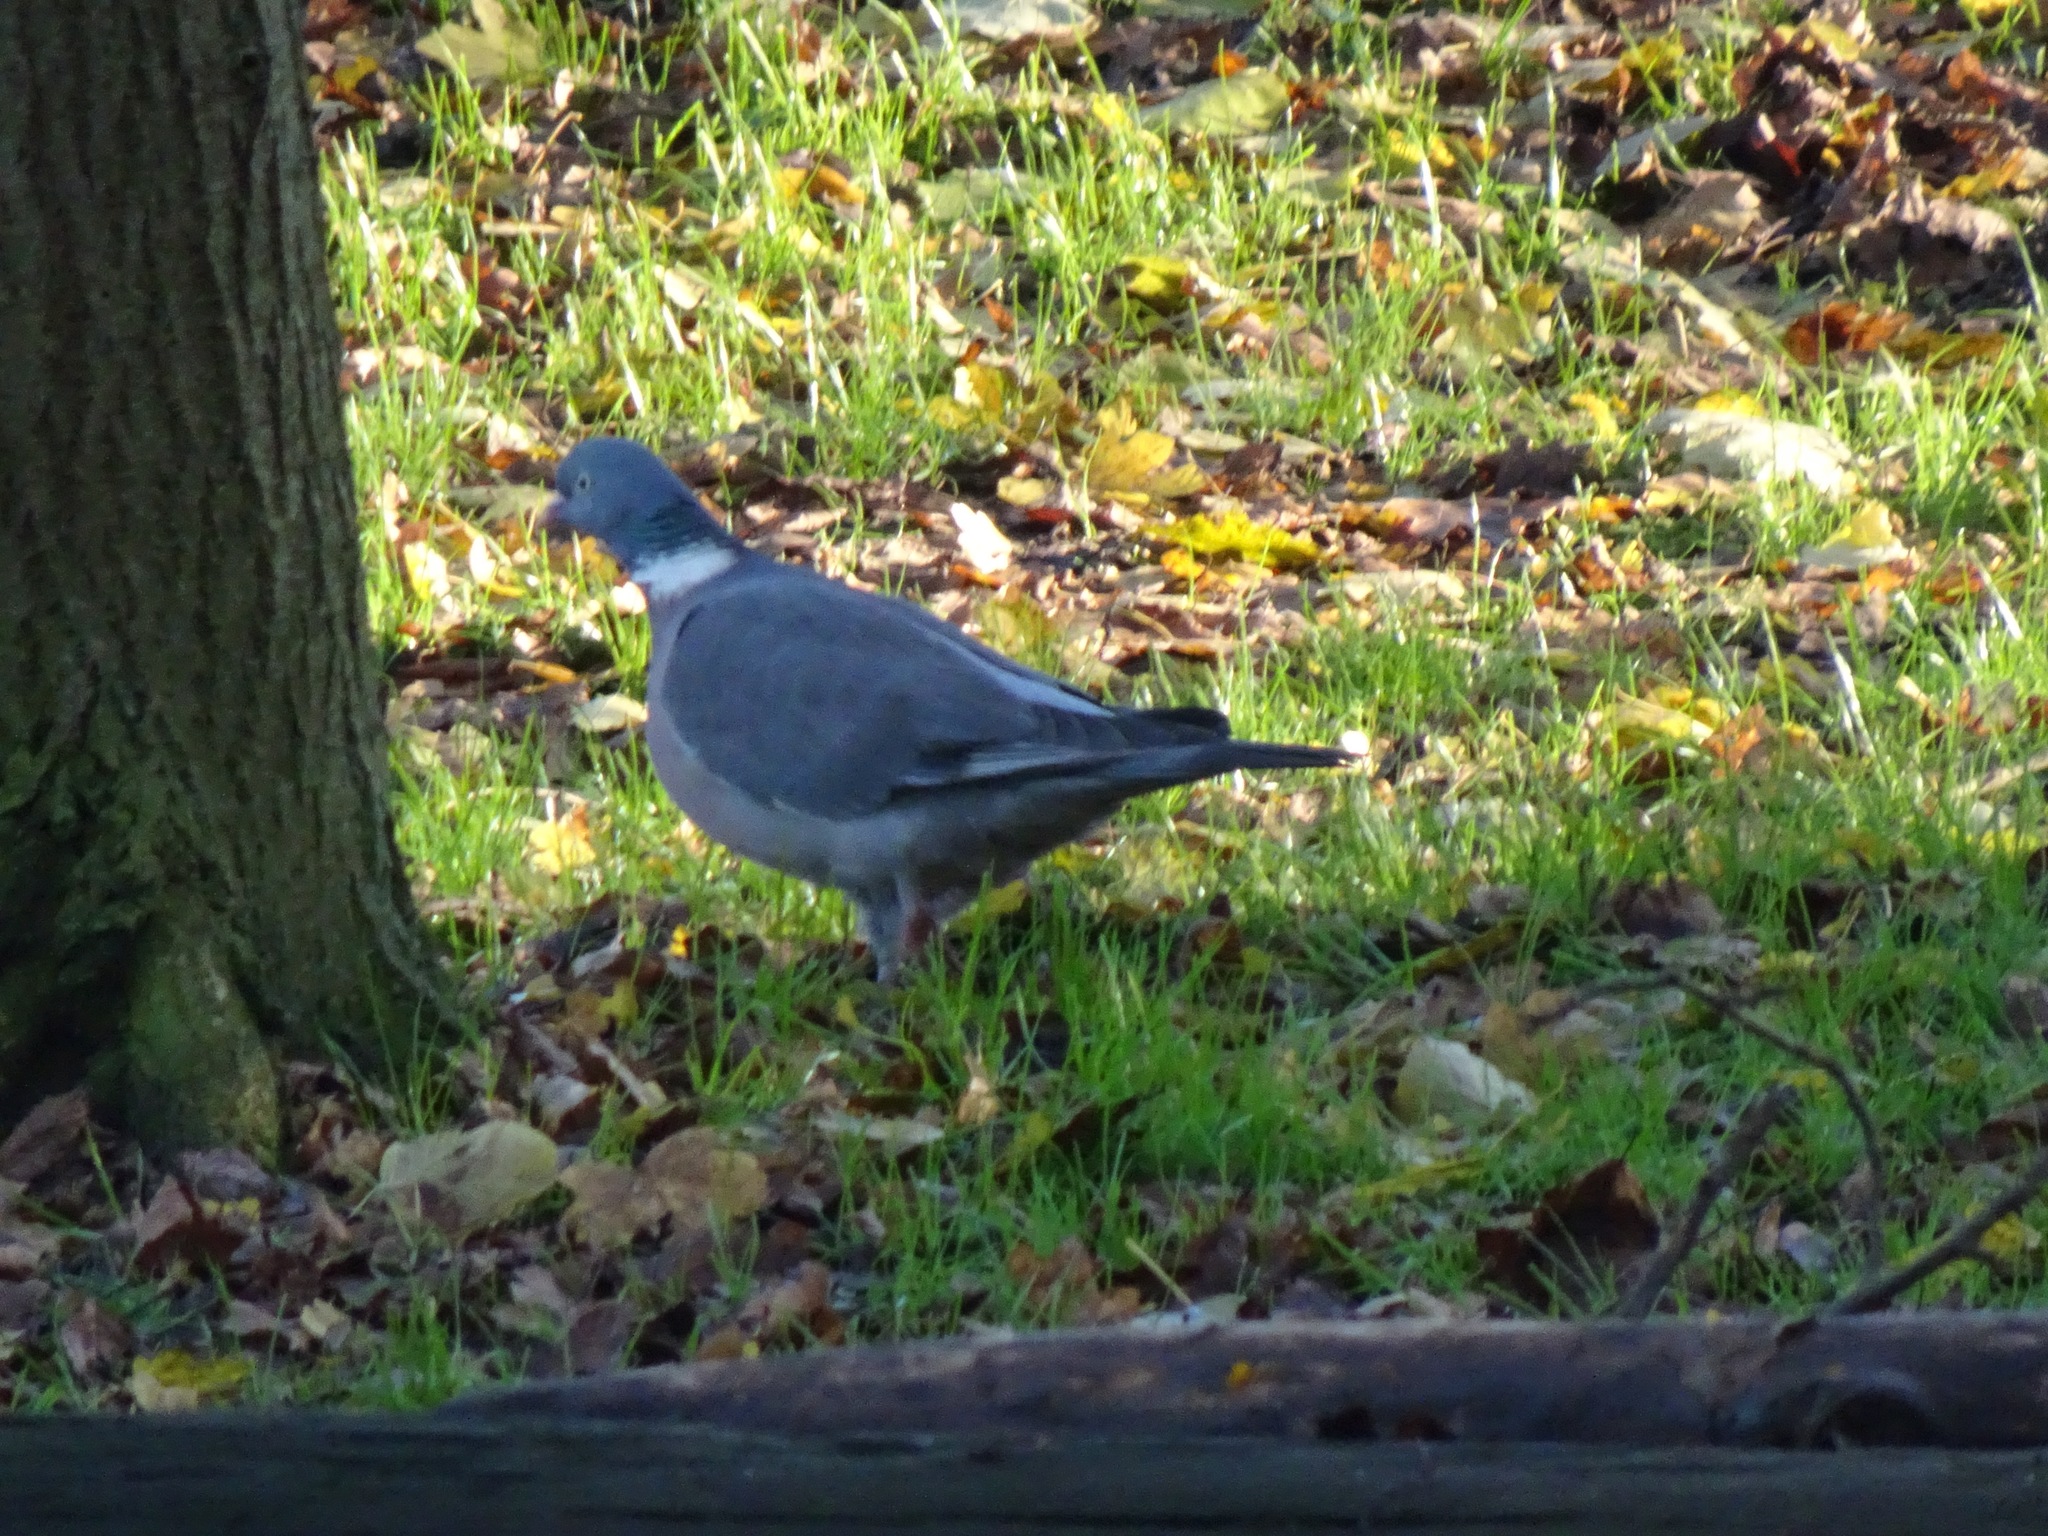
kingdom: Animalia
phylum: Chordata
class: Aves
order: Columbiformes
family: Columbidae
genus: Columba
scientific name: Columba palumbus
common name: Common wood pigeon
